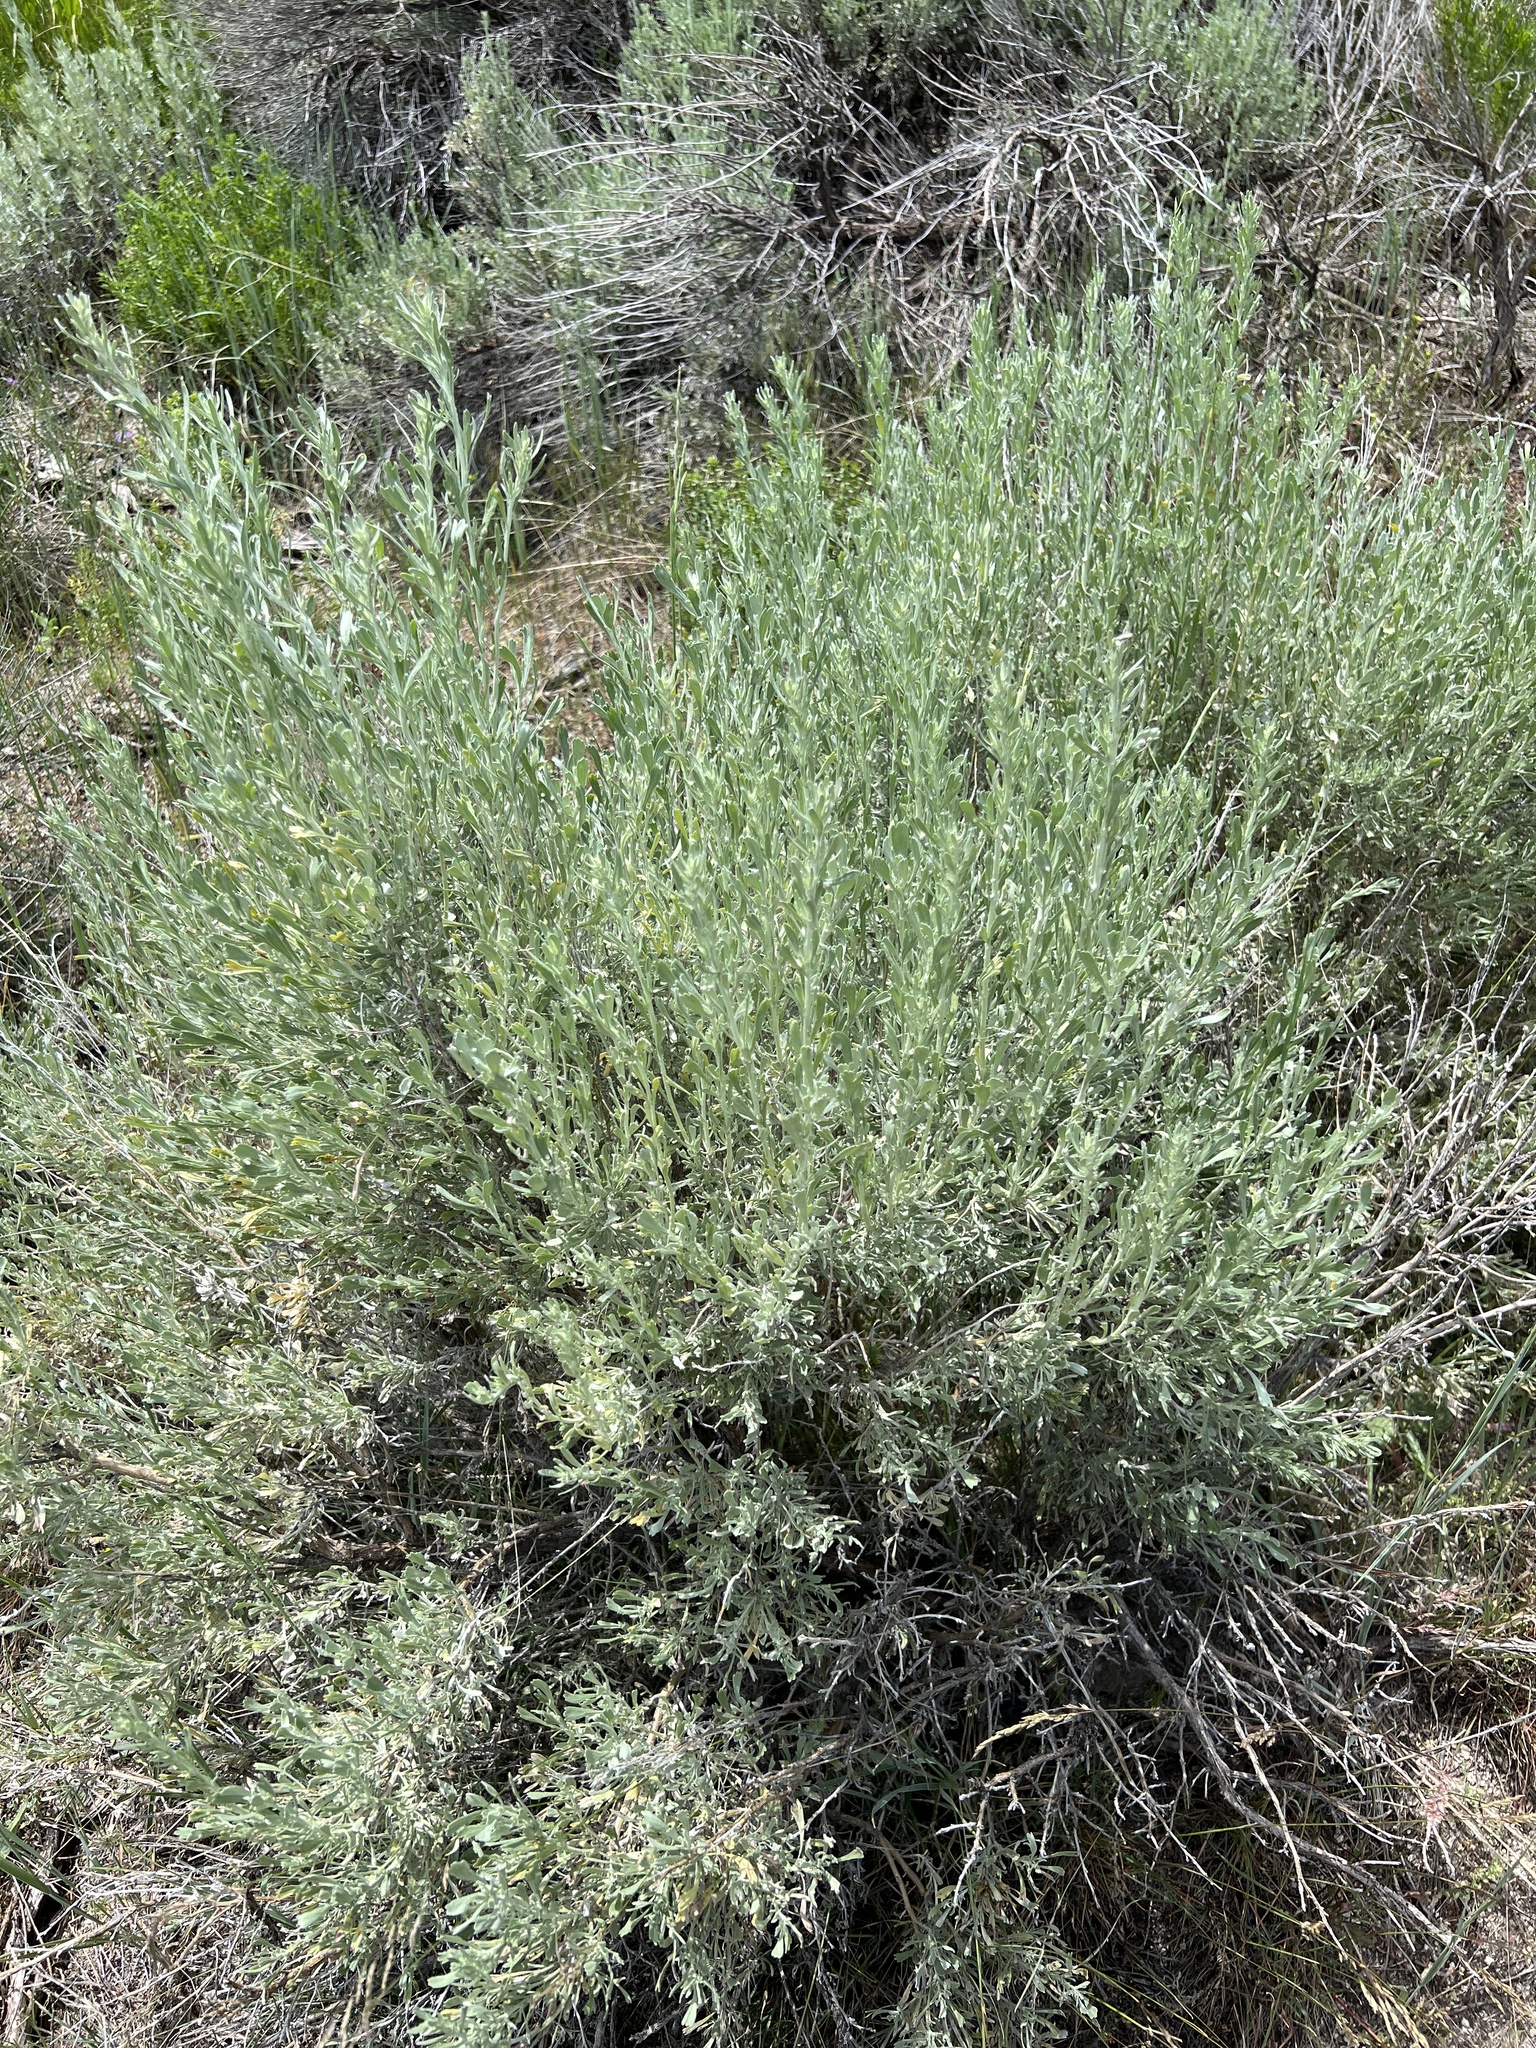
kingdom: Plantae
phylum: Tracheophyta
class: Magnoliopsida
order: Asterales
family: Asteraceae
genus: Artemisia
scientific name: Artemisia tridentata
